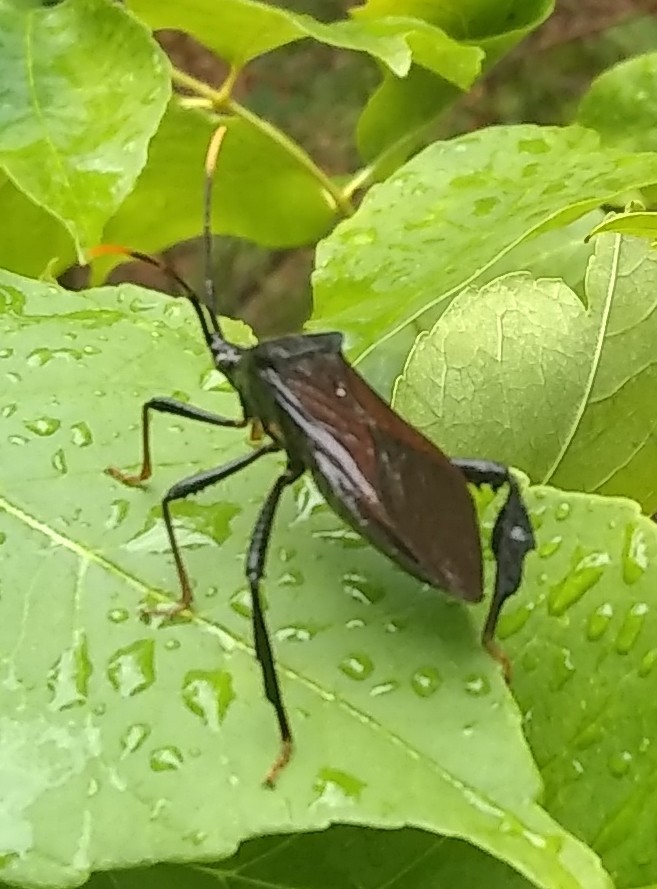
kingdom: Animalia
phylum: Arthropoda
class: Insecta
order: Hemiptera
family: Coreidae
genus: Acanthocephala
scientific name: Acanthocephala terminalis
